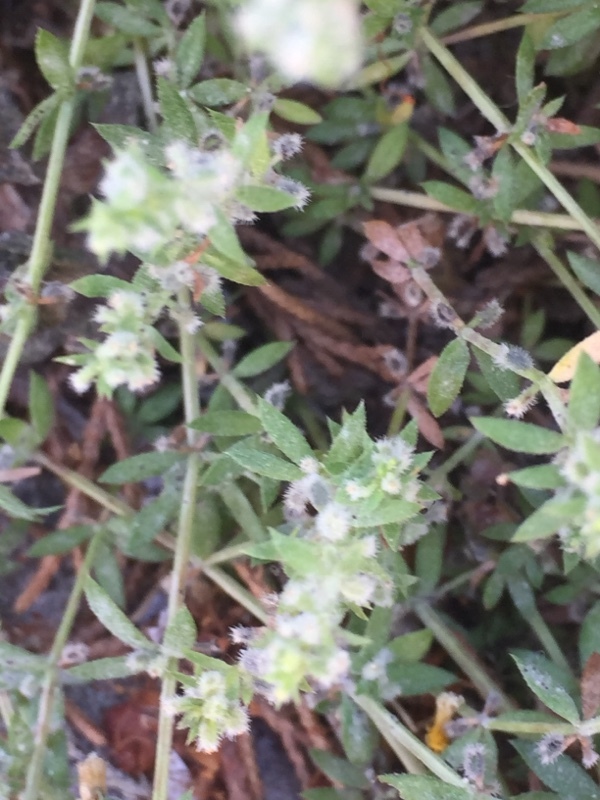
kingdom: Plantae
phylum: Tracheophyta
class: Magnoliopsida
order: Gentianales
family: Rubiaceae
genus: Galium
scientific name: Galium murale
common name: Yellow wall bedstraw
